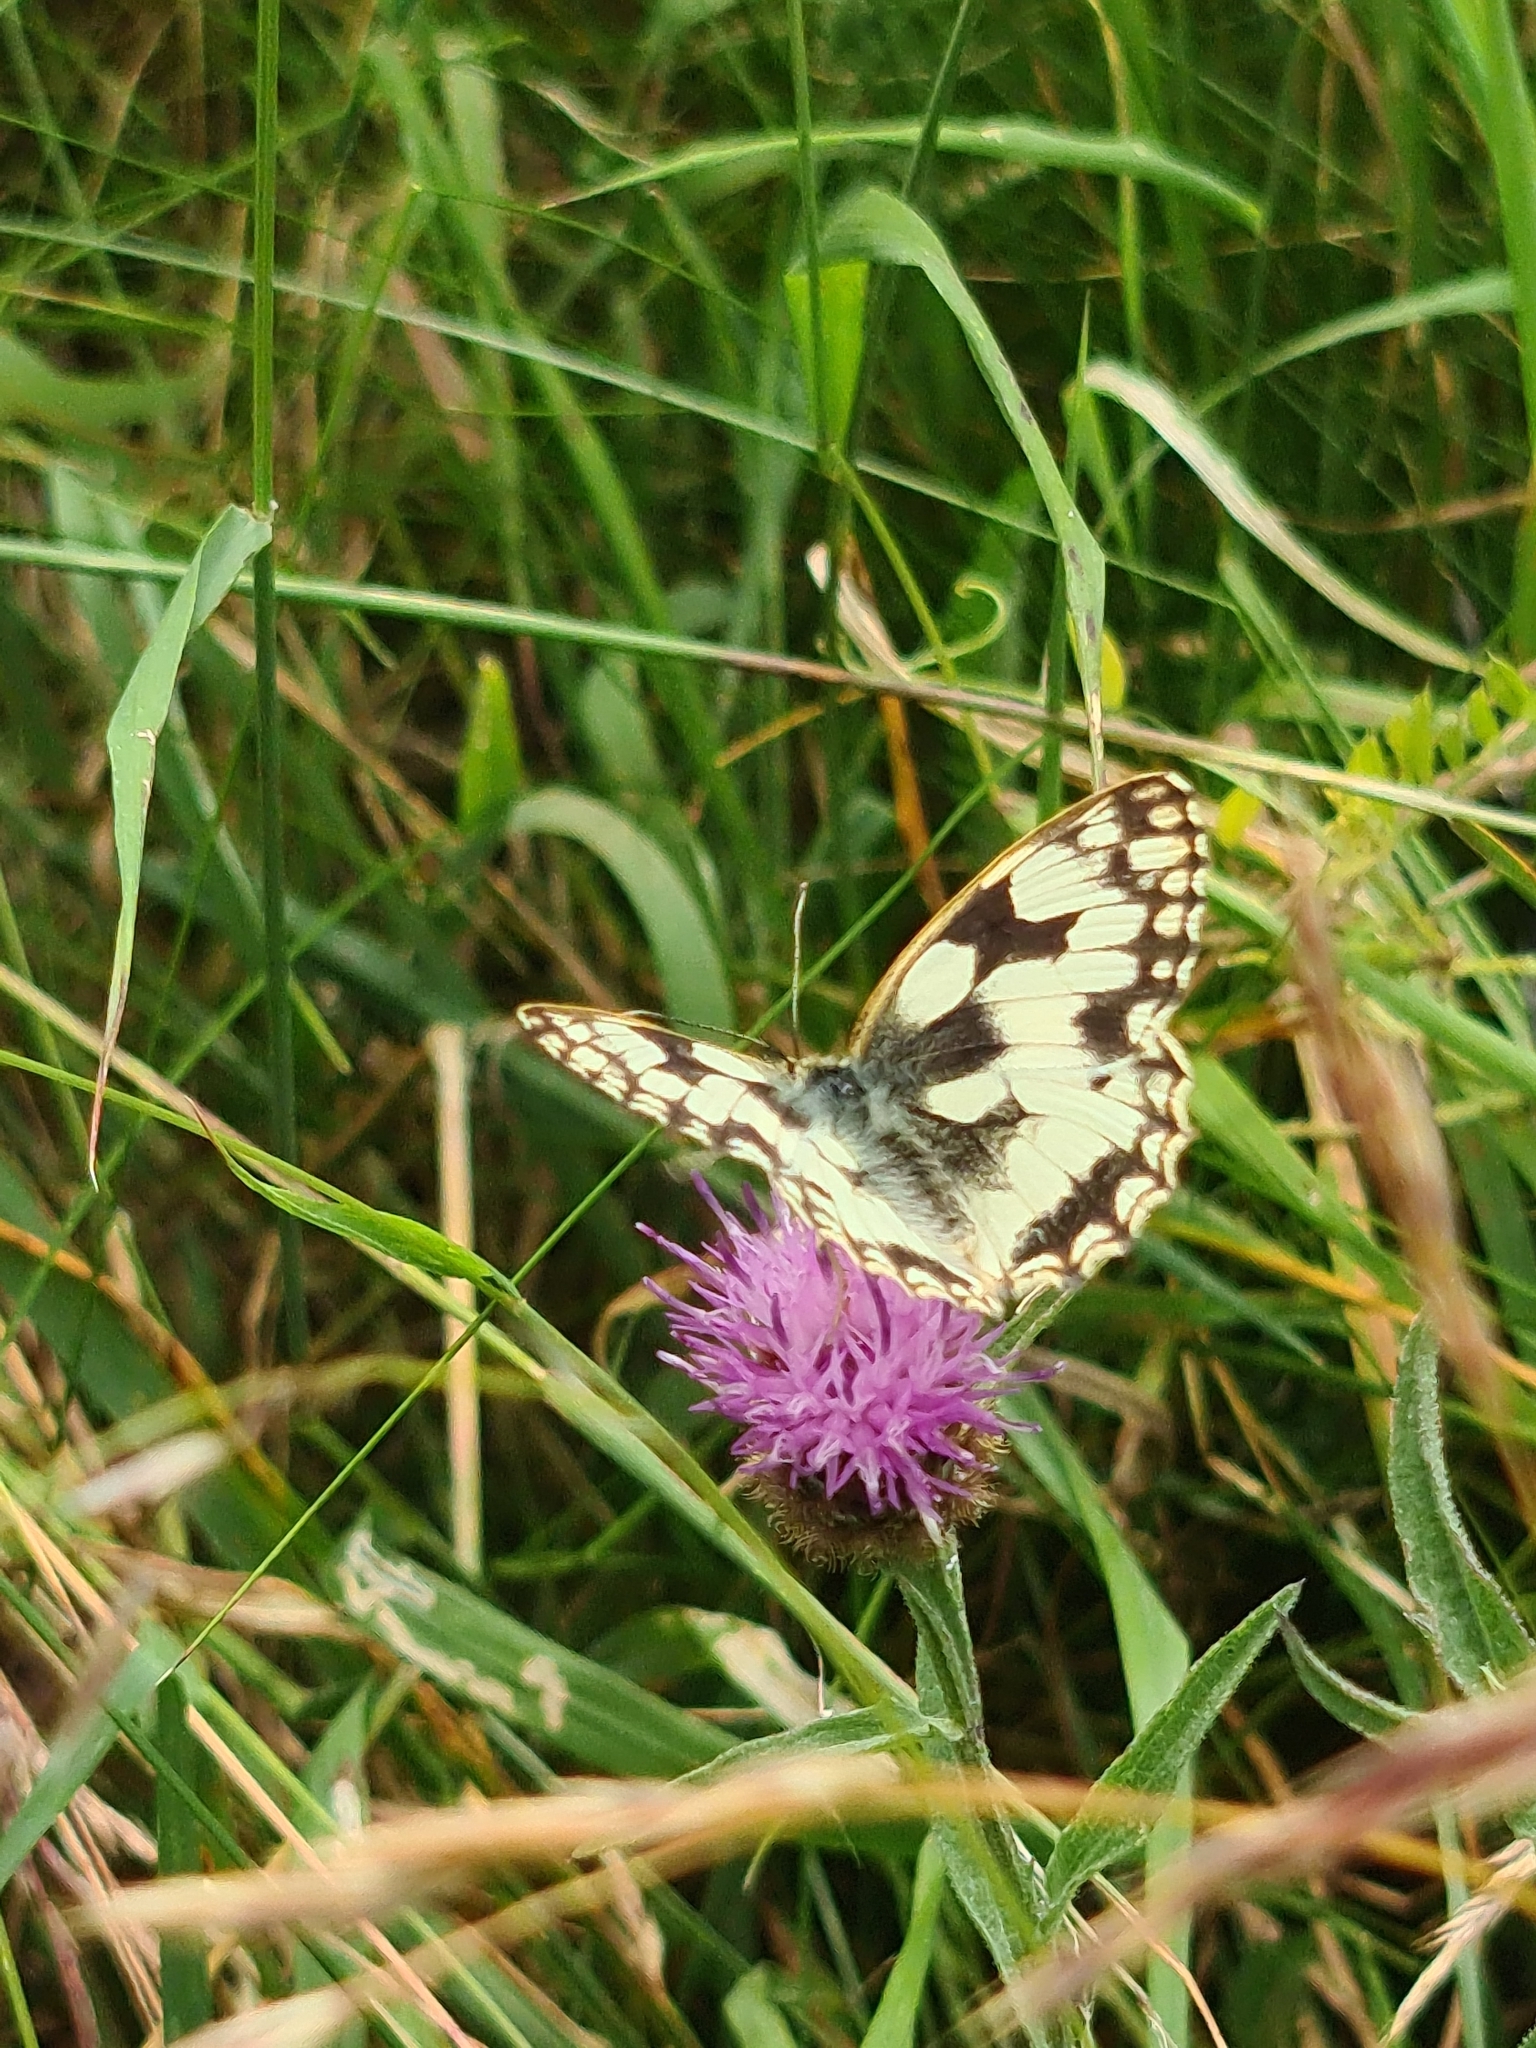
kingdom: Animalia
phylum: Arthropoda
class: Insecta
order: Lepidoptera
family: Nymphalidae
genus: Melanargia
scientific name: Melanargia galathea
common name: Marbled white
